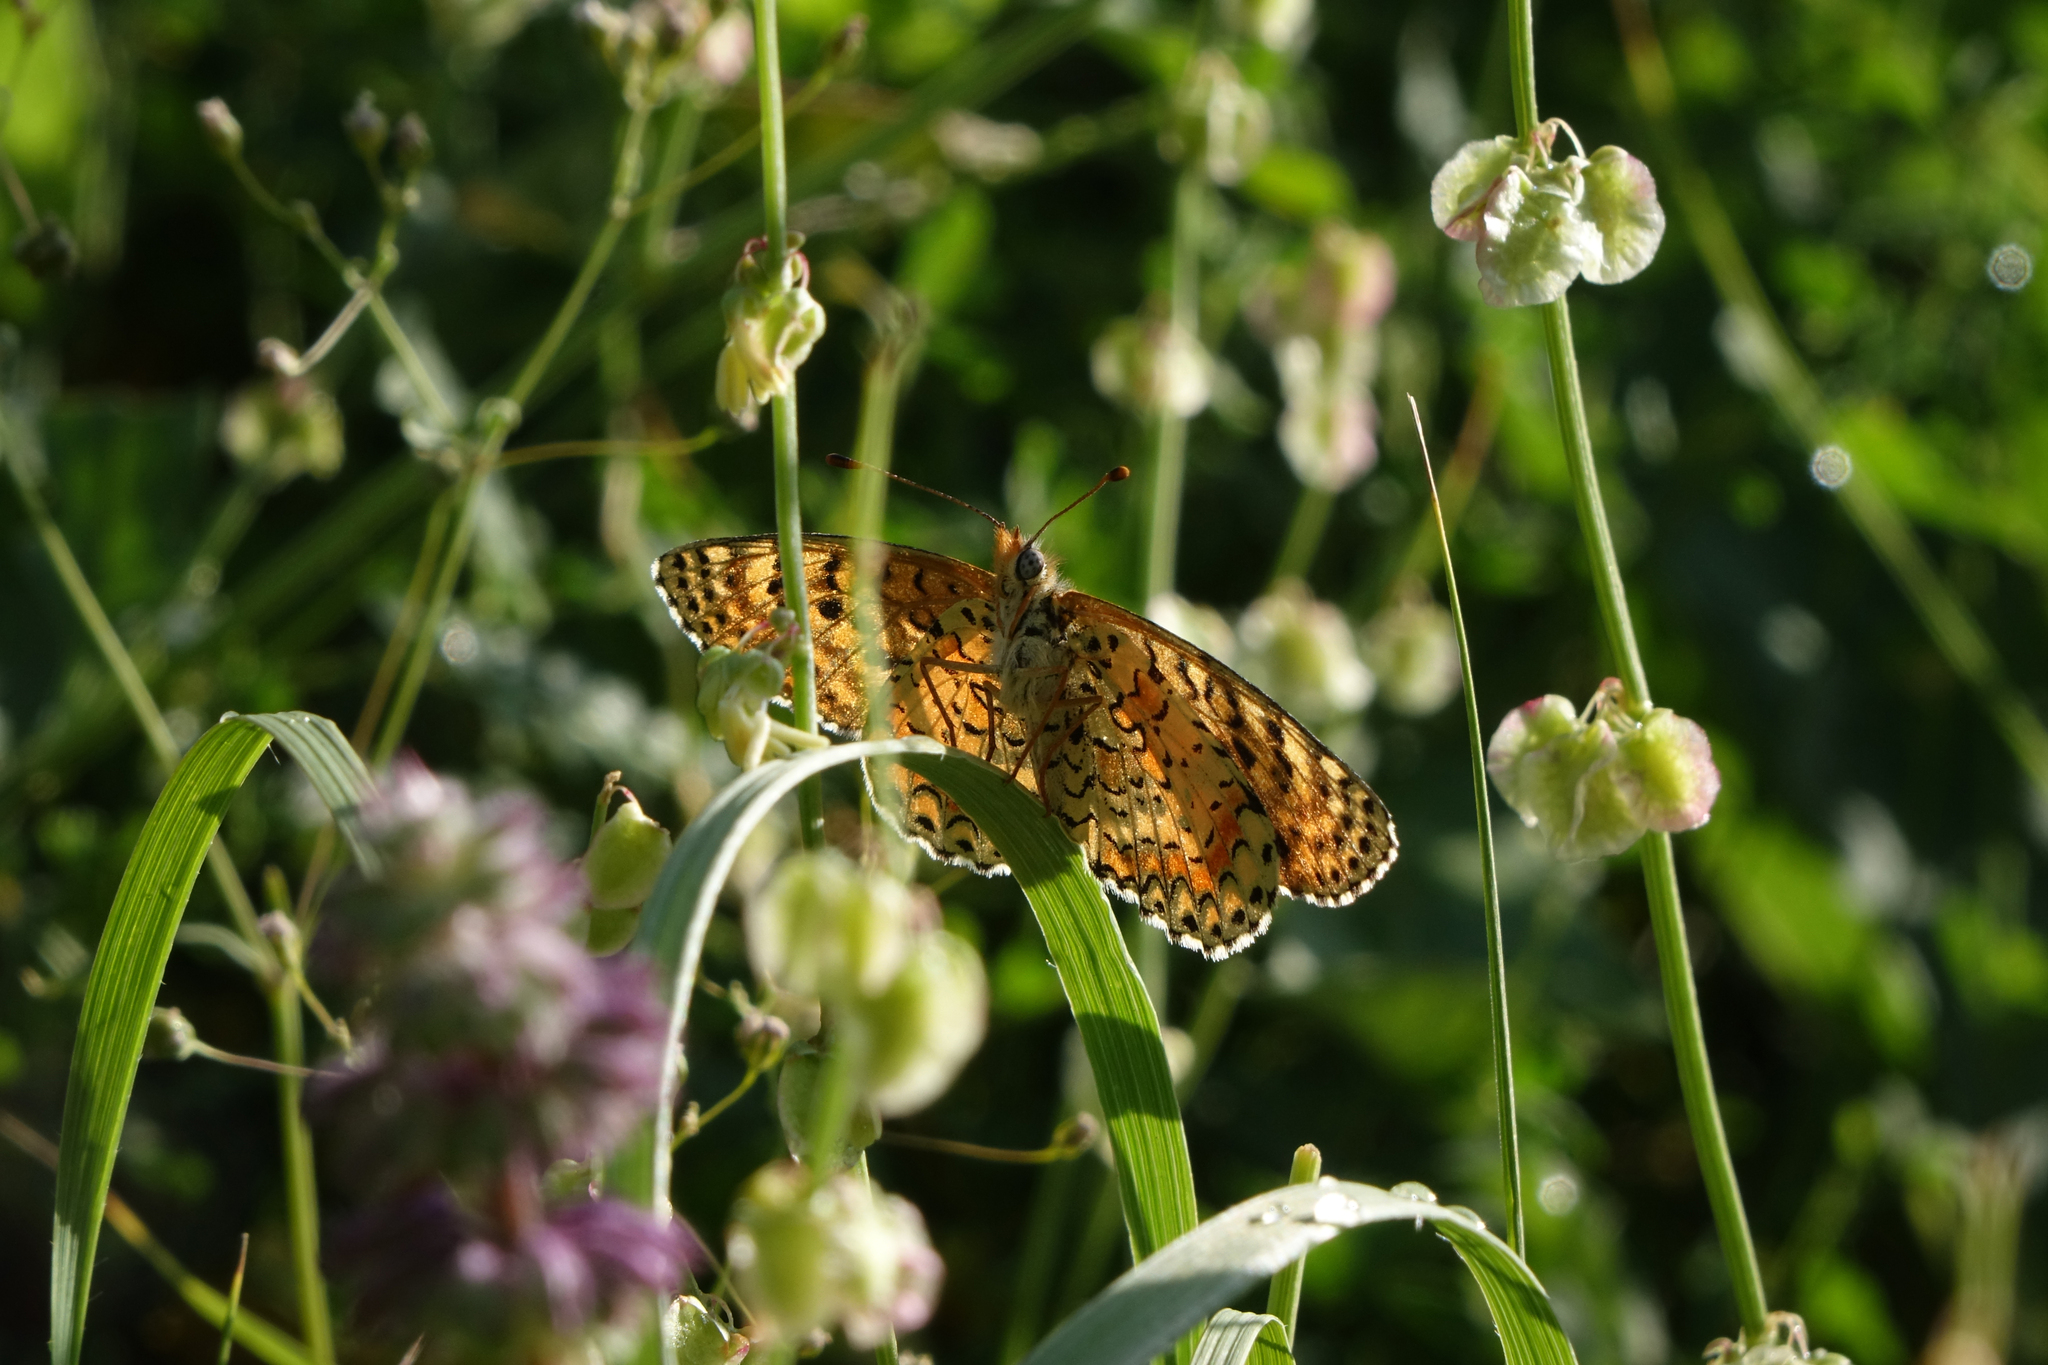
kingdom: Animalia
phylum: Arthropoda
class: Insecta
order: Lepidoptera
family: Nymphalidae
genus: Melitaea
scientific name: Melitaea cinxia
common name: Glanville fritillary
